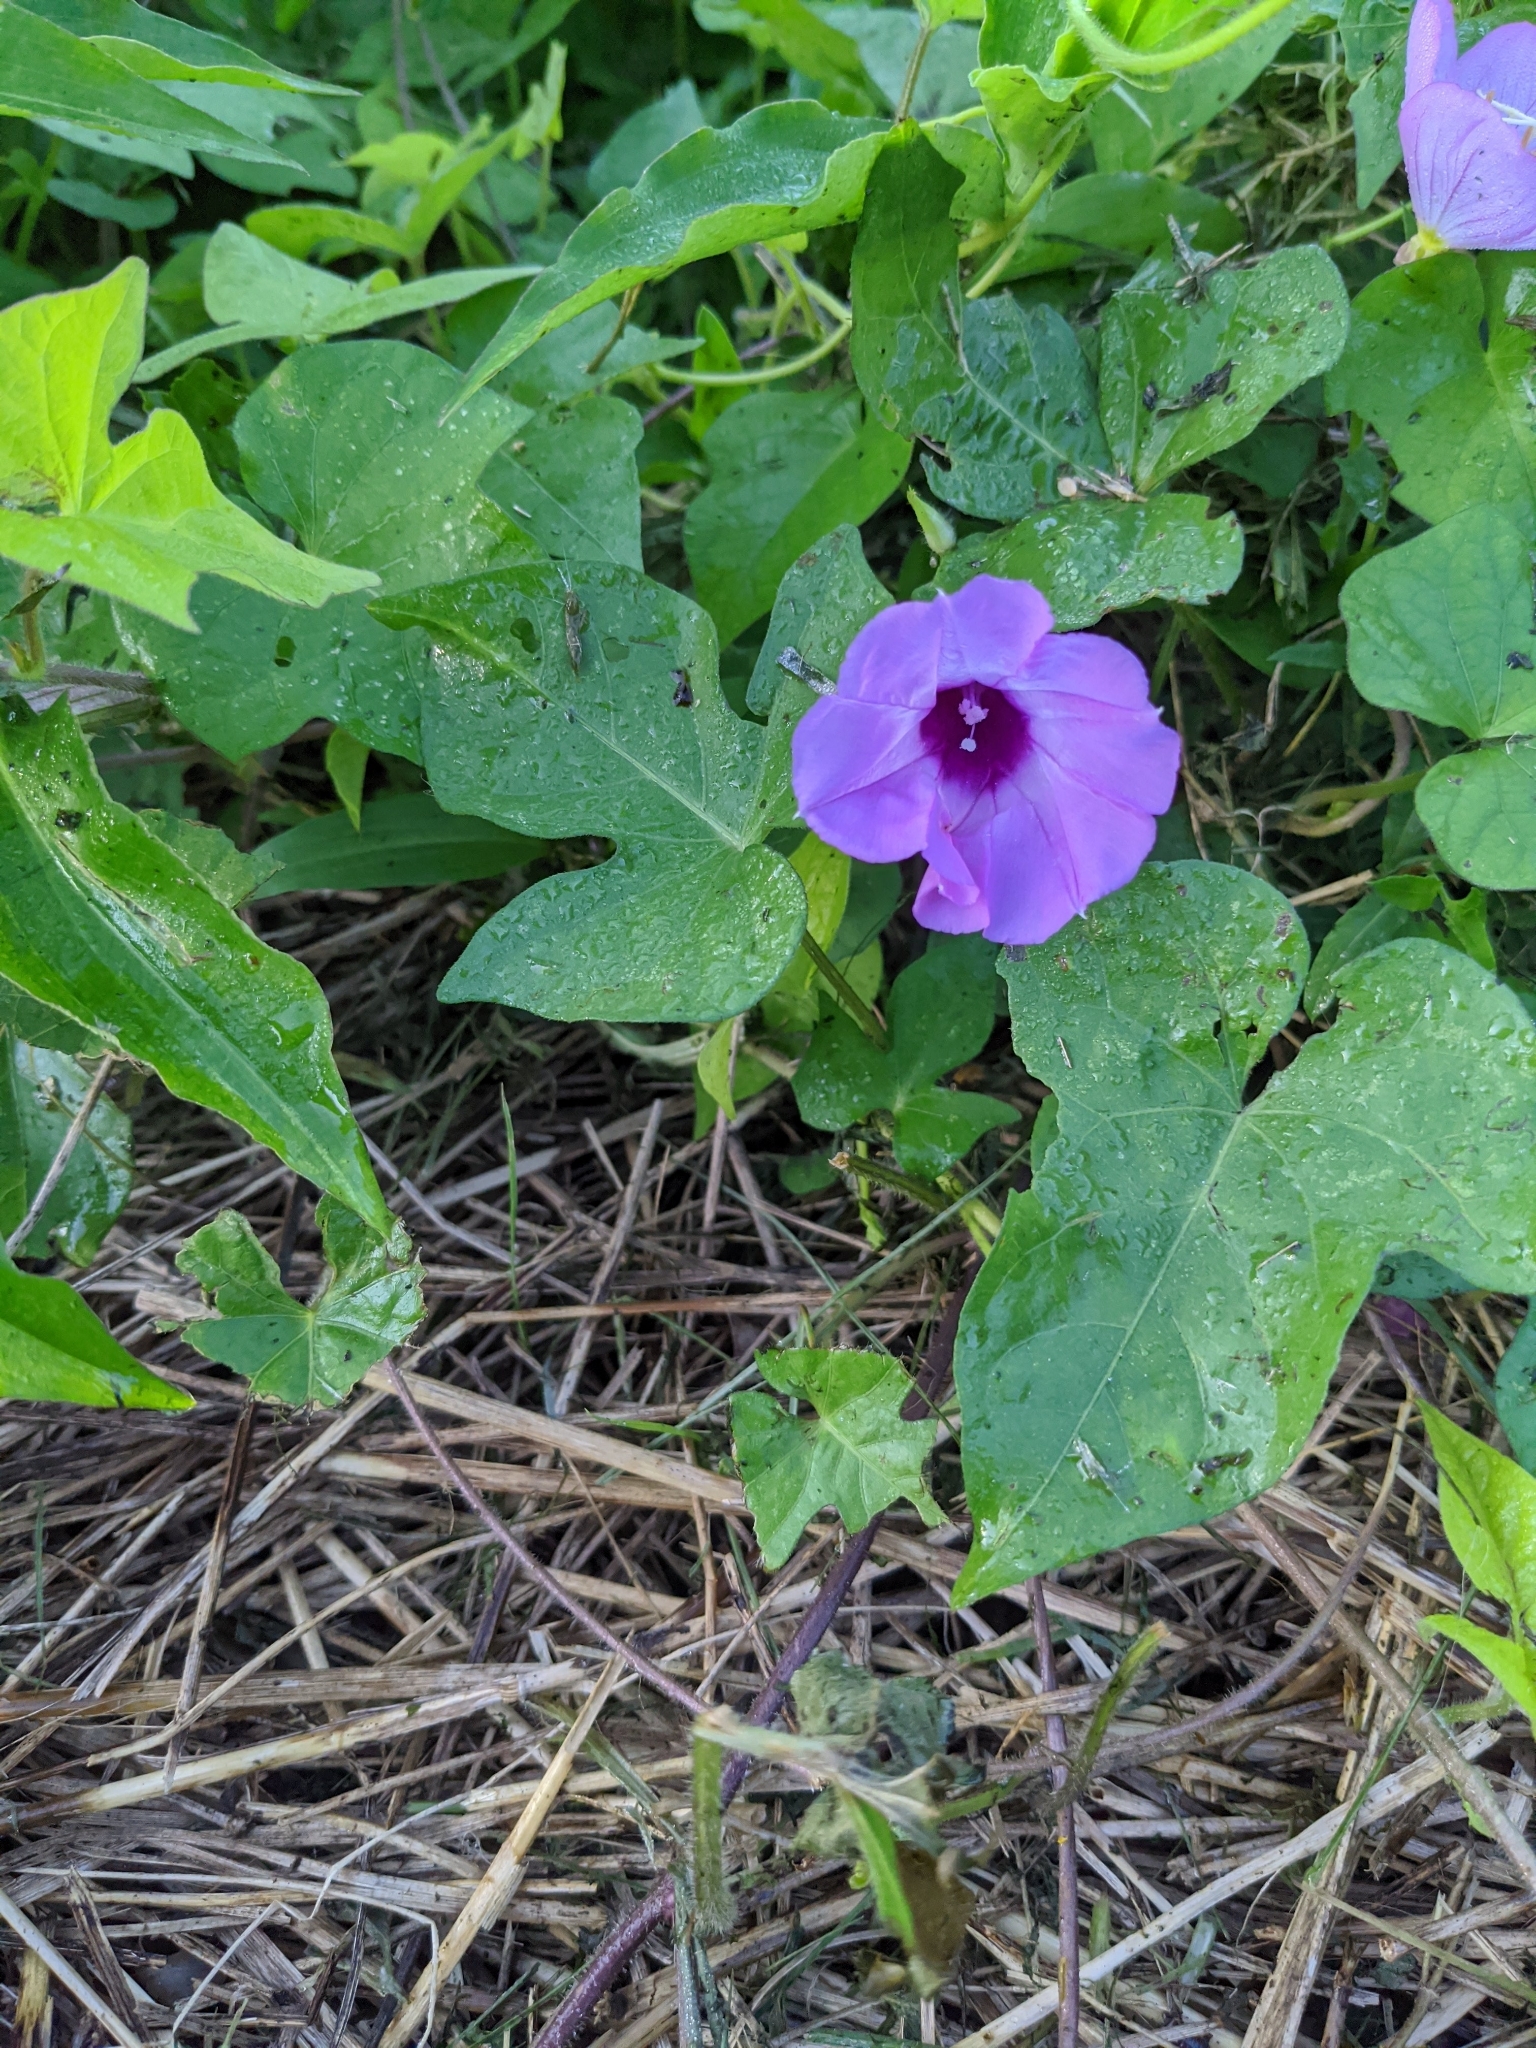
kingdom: Plantae
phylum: Tracheophyta
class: Magnoliopsida
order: Solanales
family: Convolvulaceae
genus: Ipomoea
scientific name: Ipomoea cordatotriloba
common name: Cotton morning glory
